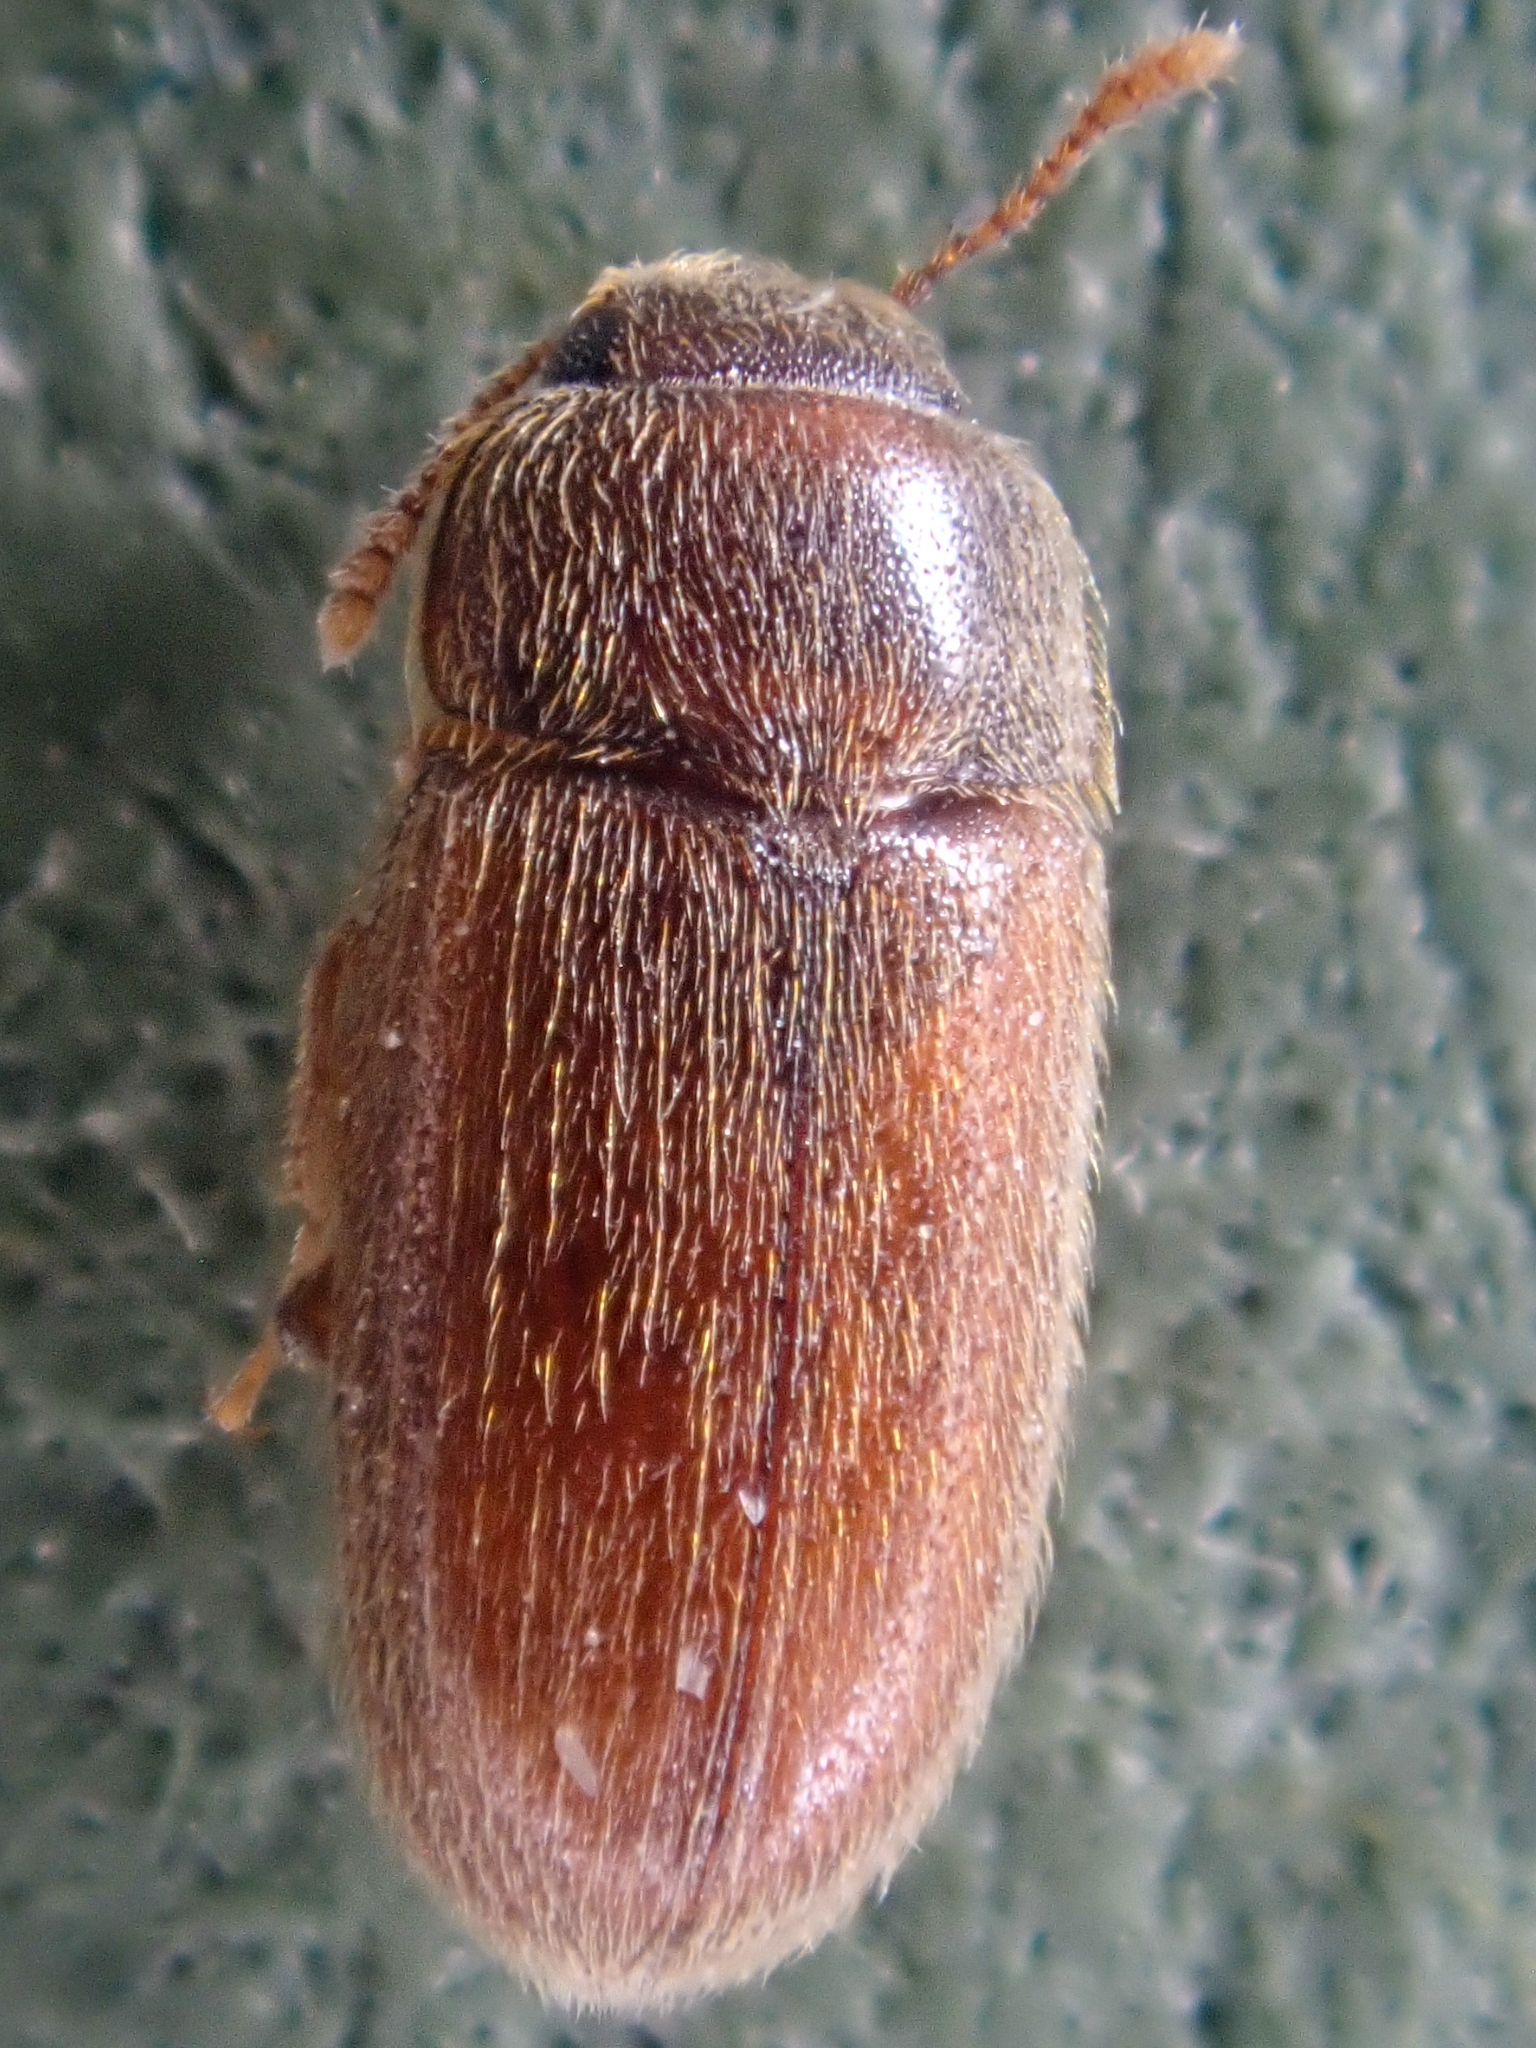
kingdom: Animalia
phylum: Arthropoda
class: Insecta
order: Coleoptera
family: Mycetophagidae
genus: Typhaea
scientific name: Typhaea stercorea
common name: Hairy fungus beetle
